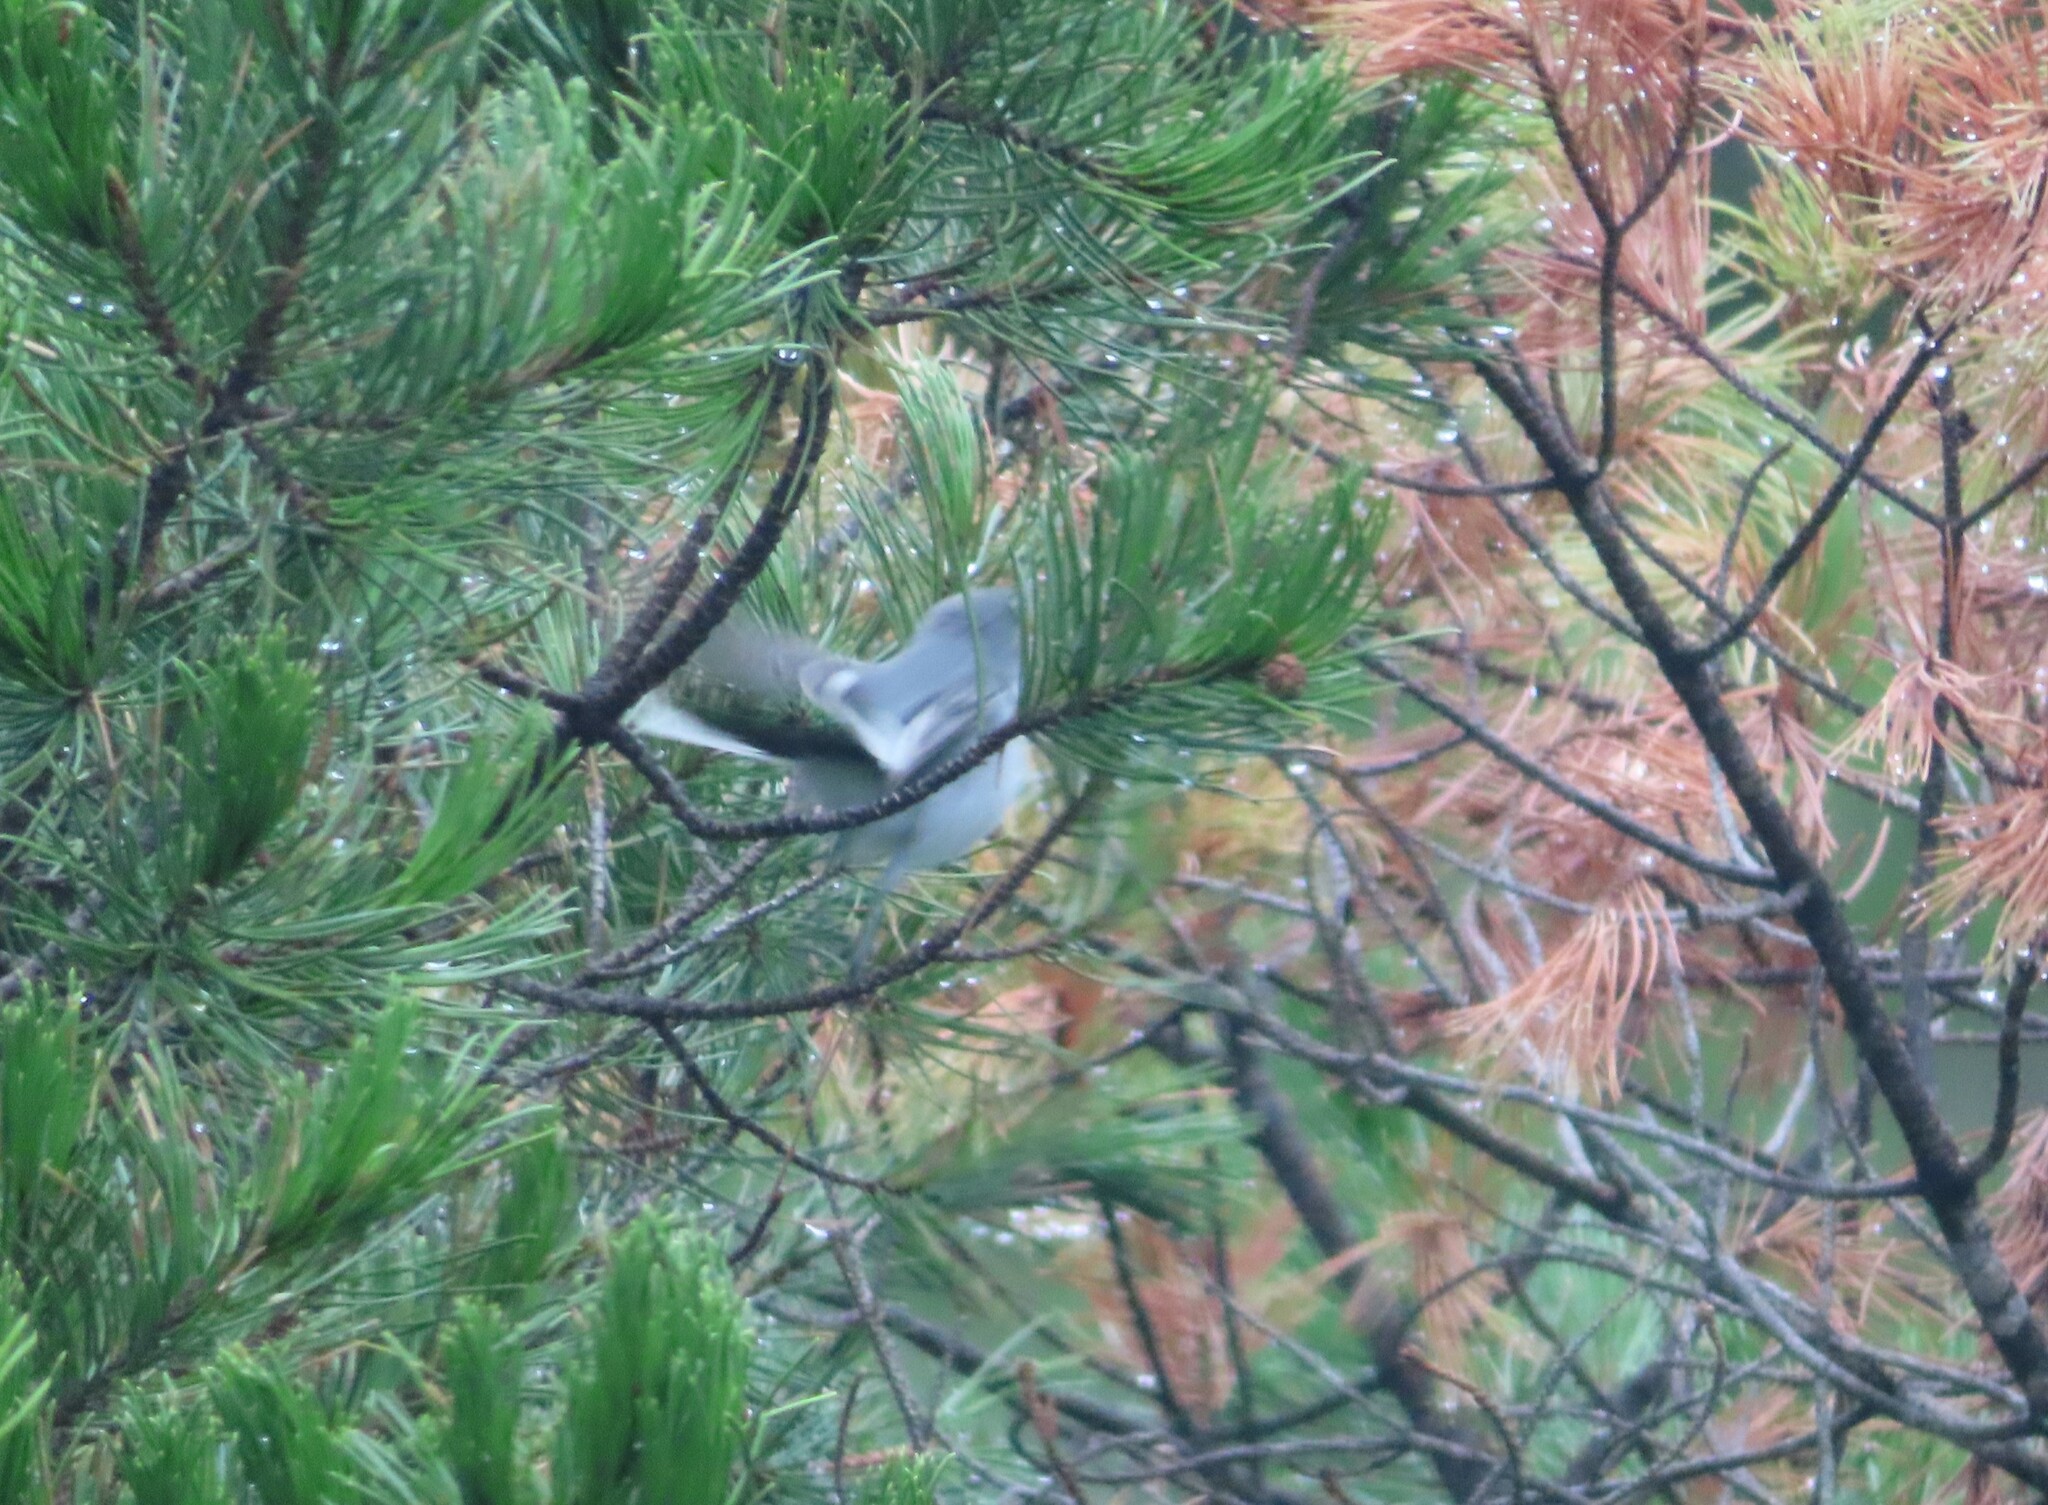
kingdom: Animalia
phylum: Chordata
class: Aves
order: Passeriformes
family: Polioptilidae
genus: Polioptila
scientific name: Polioptila caerulea
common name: Blue-gray gnatcatcher
